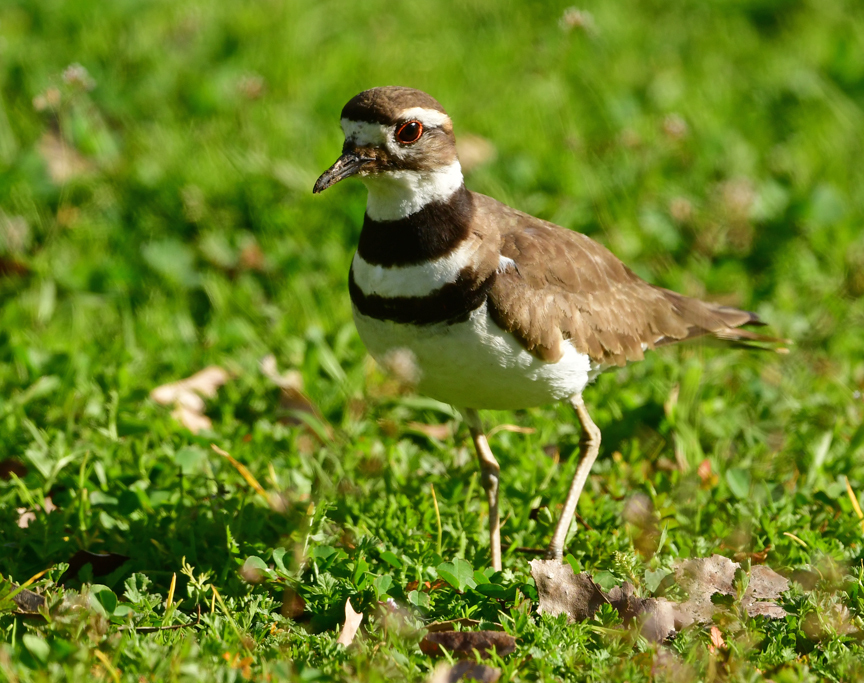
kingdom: Animalia
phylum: Chordata
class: Aves
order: Charadriiformes
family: Charadriidae
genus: Charadrius
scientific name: Charadrius vociferus
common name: Killdeer
